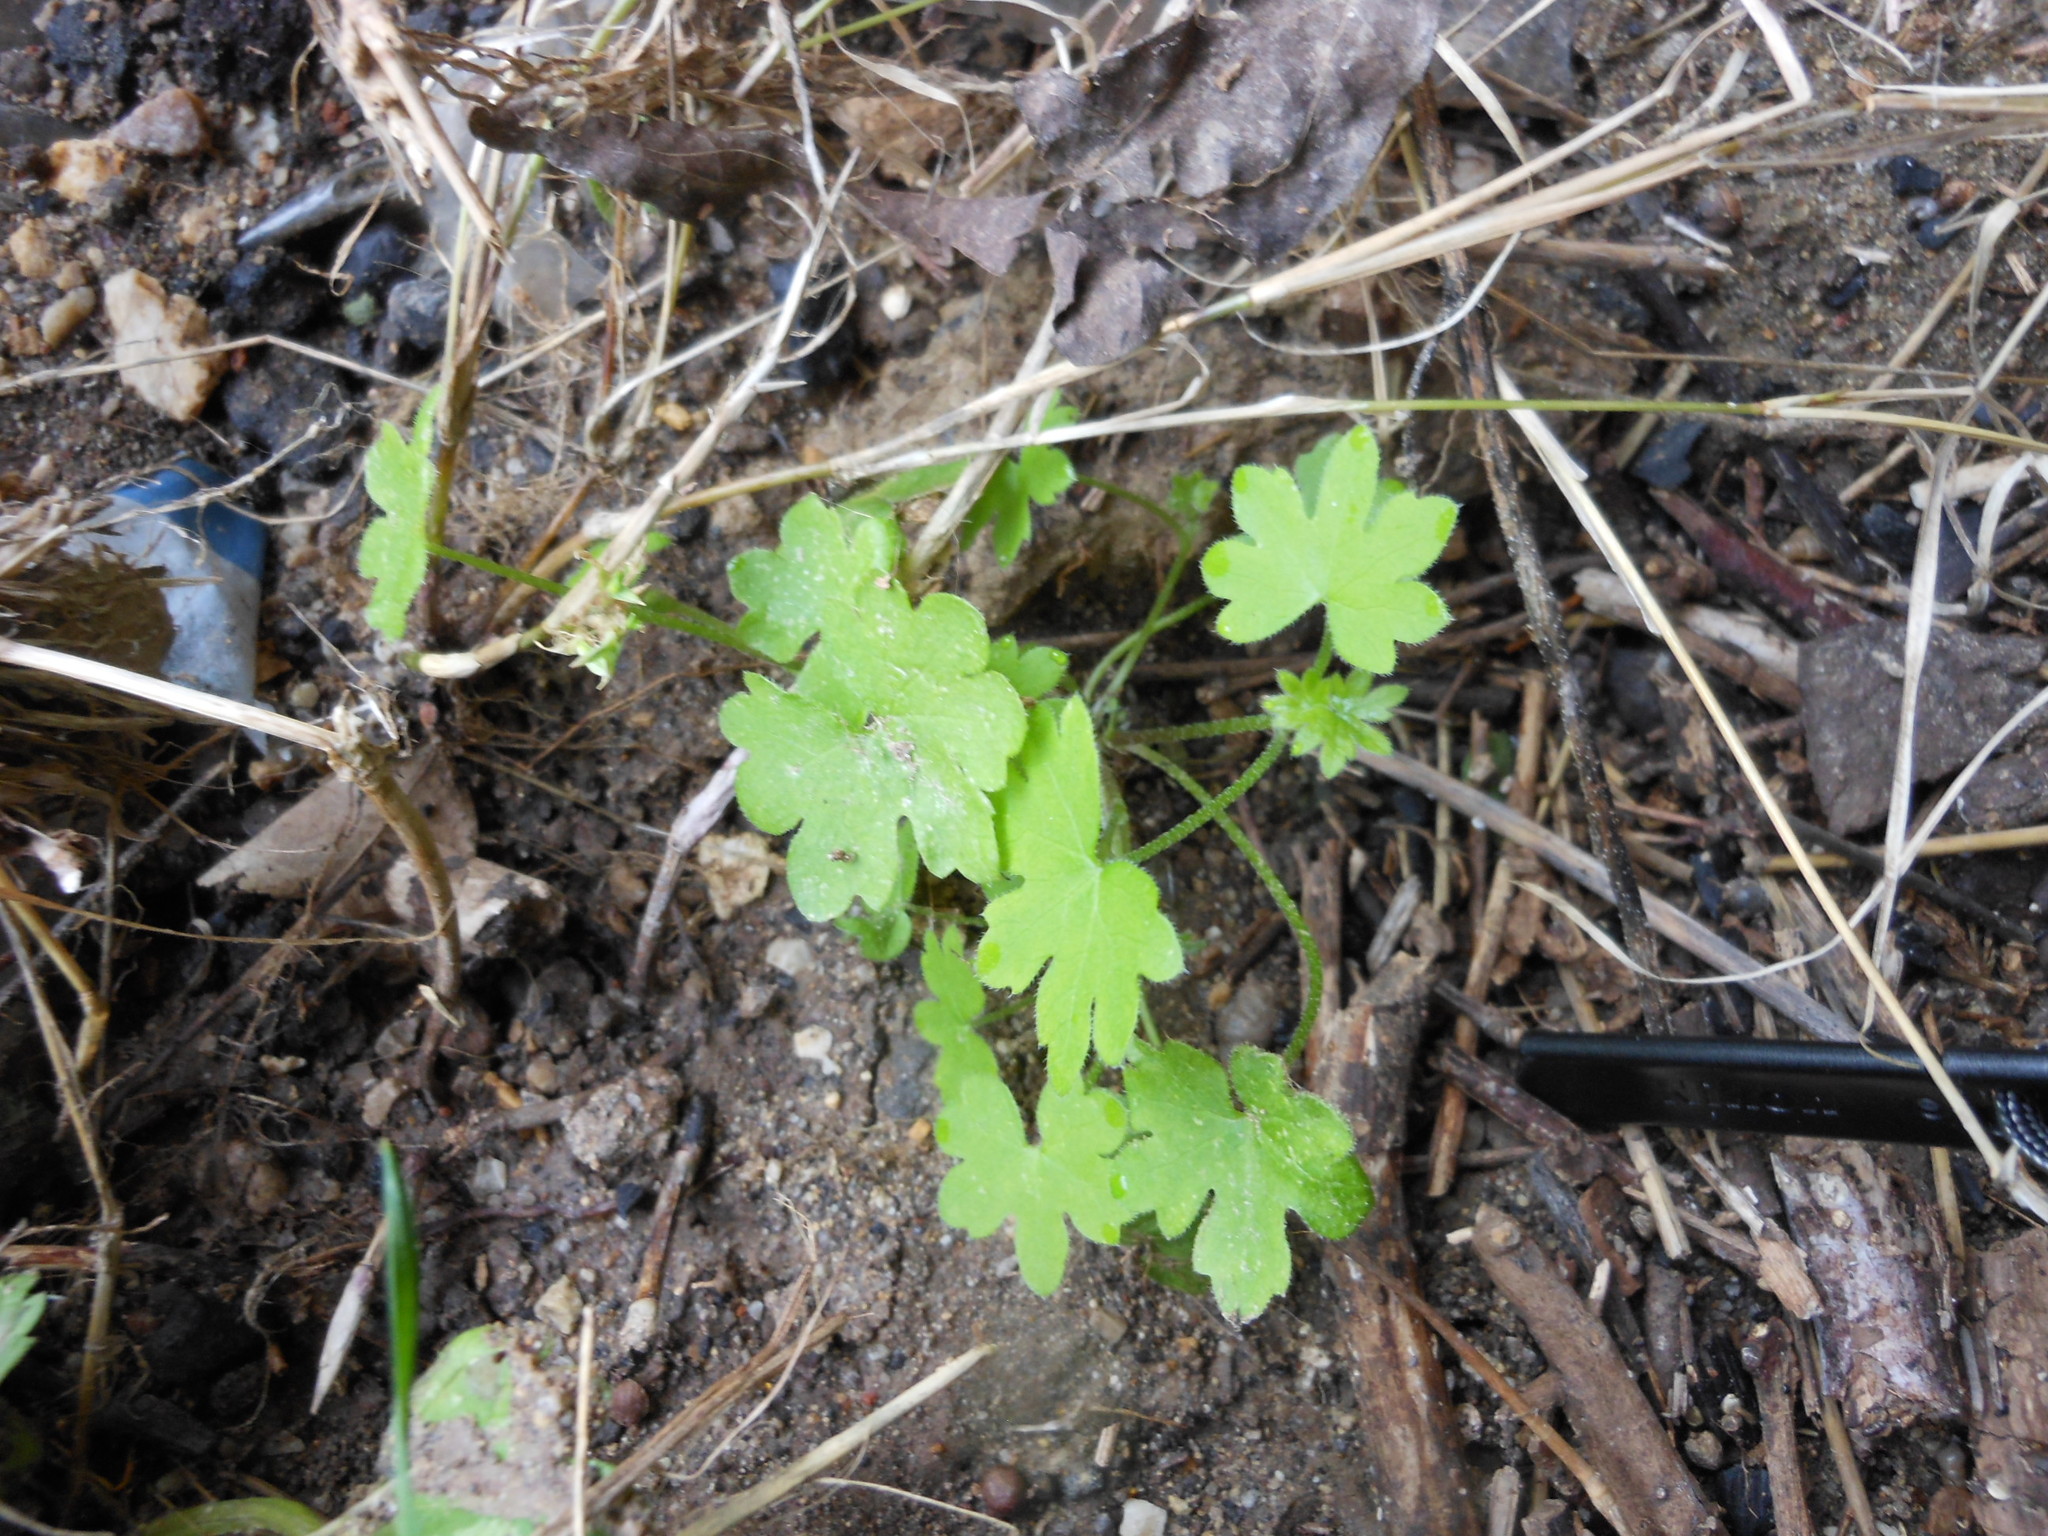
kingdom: Plantae
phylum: Tracheophyta
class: Magnoliopsida
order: Apiales
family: Apiaceae
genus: Bowlesia
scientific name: Bowlesia incana
